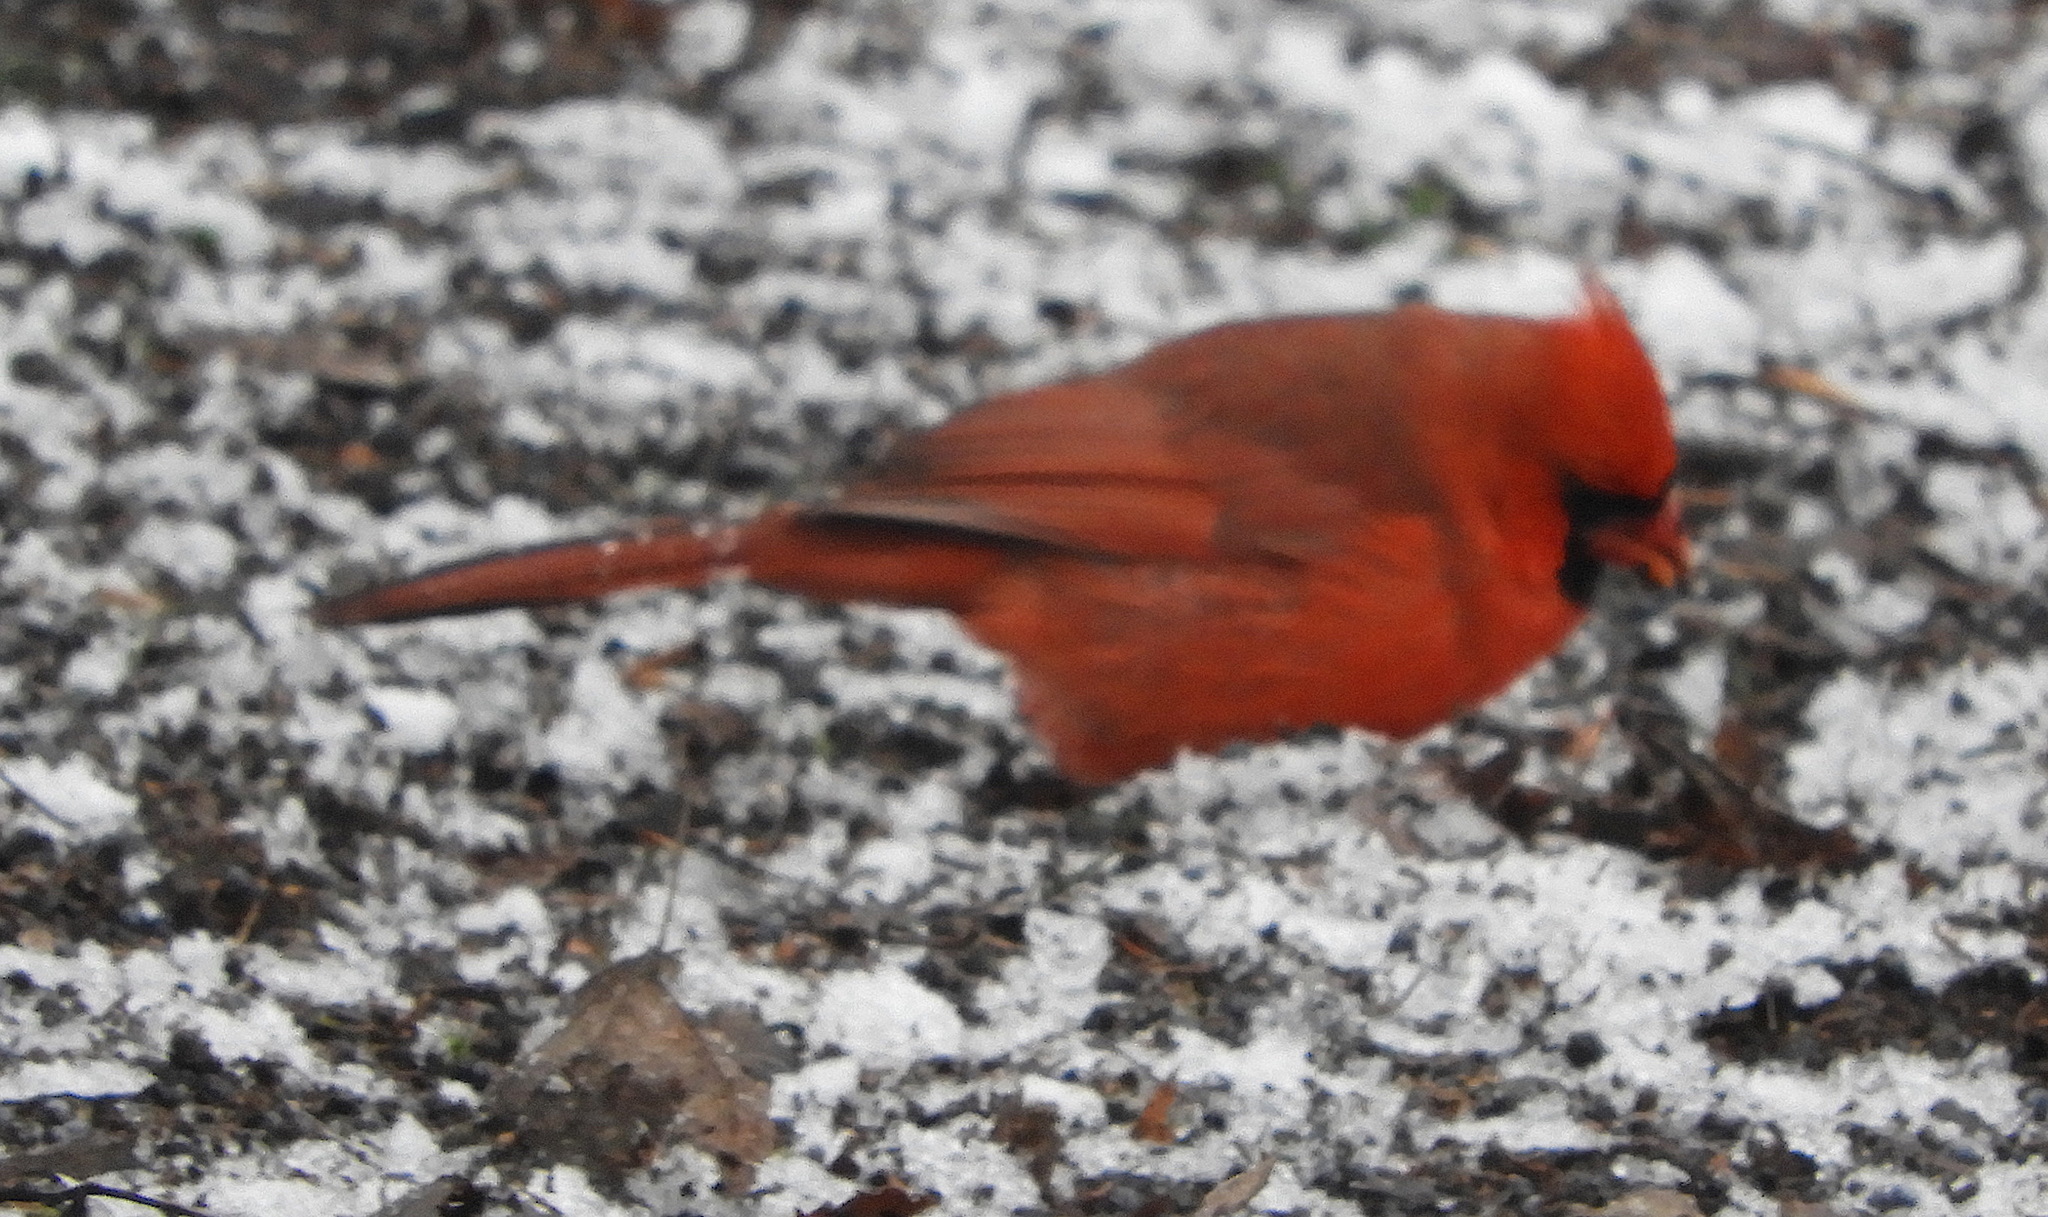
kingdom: Animalia
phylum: Chordata
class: Aves
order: Passeriformes
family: Cardinalidae
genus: Cardinalis
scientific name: Cardinalis cardinalis
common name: Northern cardinal
